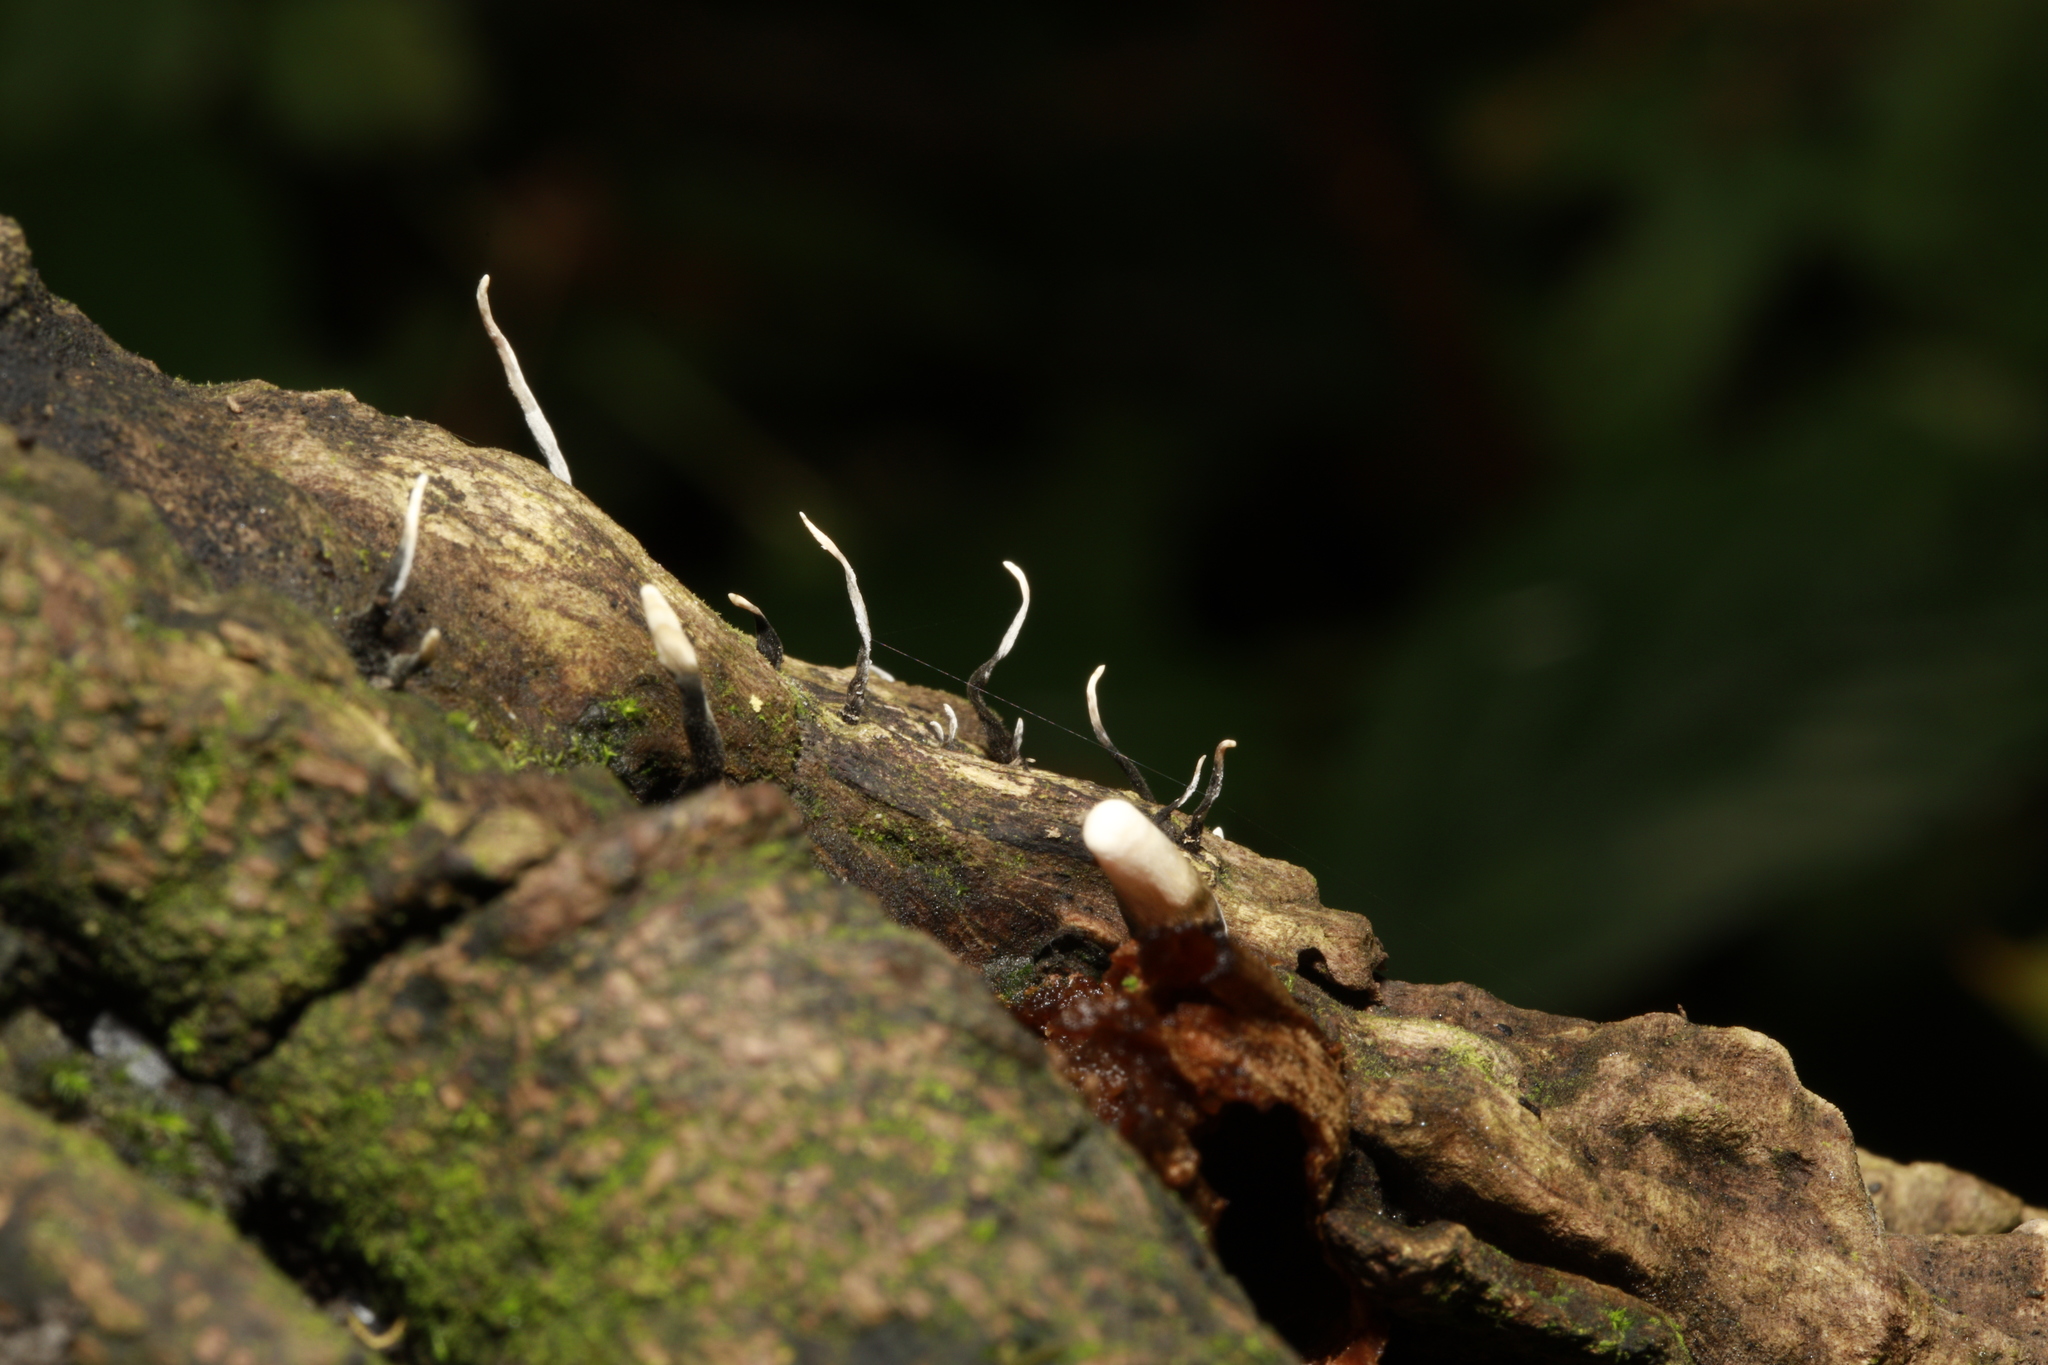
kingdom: Fungi
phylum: Ascomycota
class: Sordariomycetes
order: Xylariales
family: Xylariaceae
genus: Xylaria
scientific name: Xylaria hypoxylon
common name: Candle-snuff fungus
